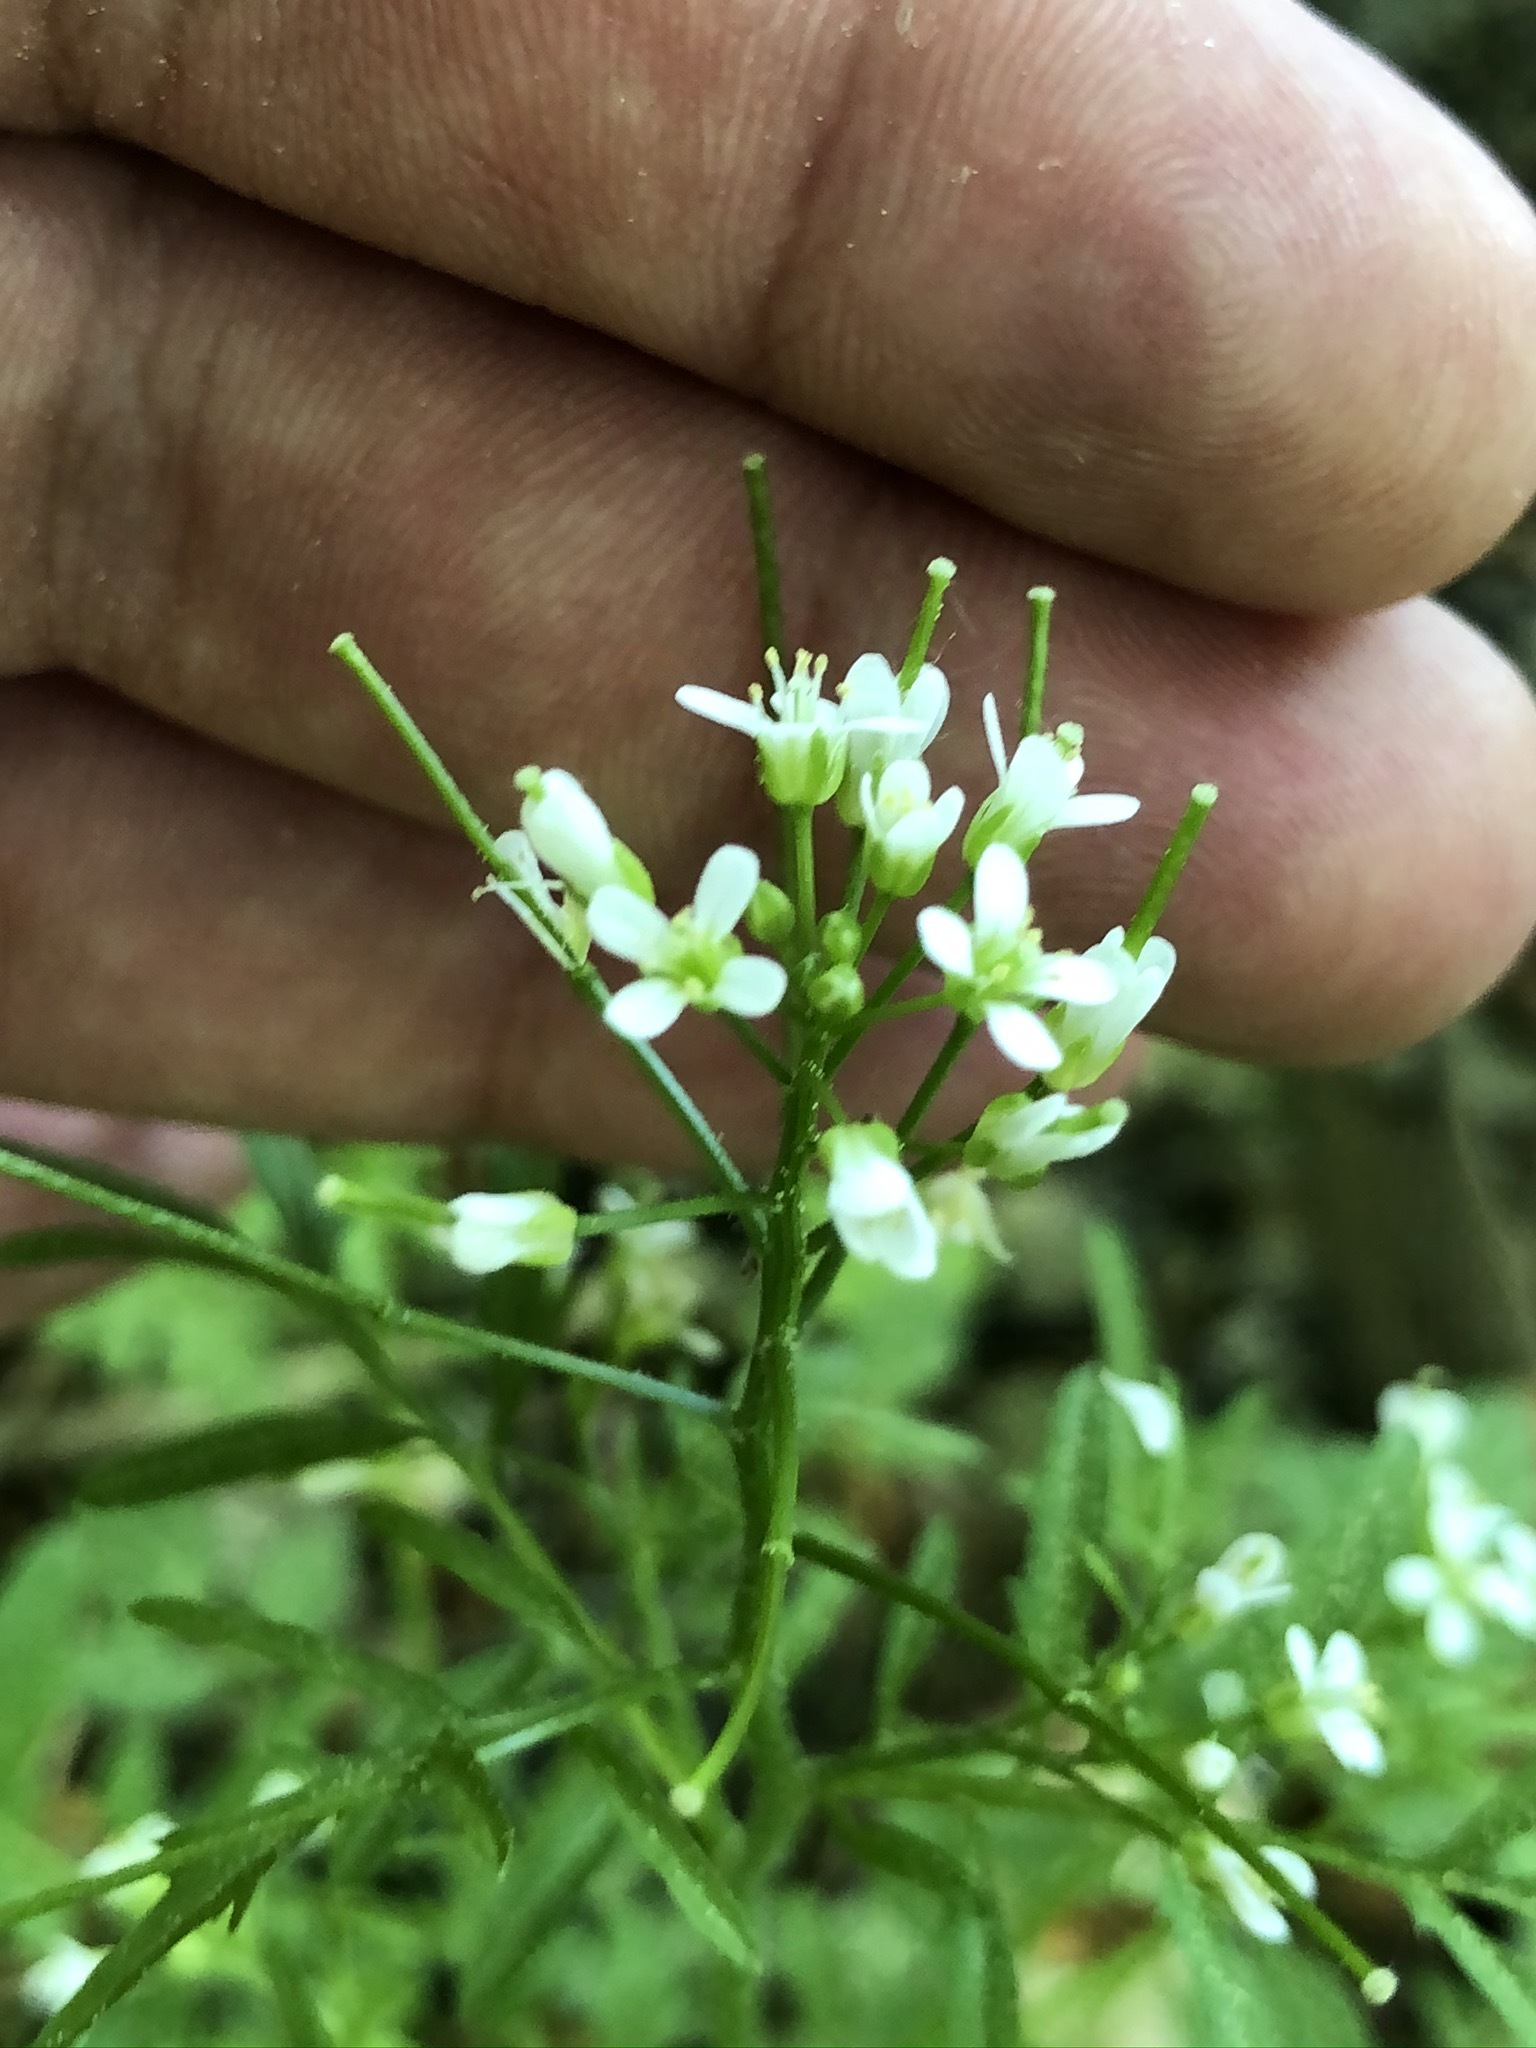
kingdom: Plantae
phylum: Tracheophyta
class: Magnoliopsida
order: Brassicales
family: Brassicaceae
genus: Cardamine
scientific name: Cardamine flexuosa
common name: Woodland bittercress
